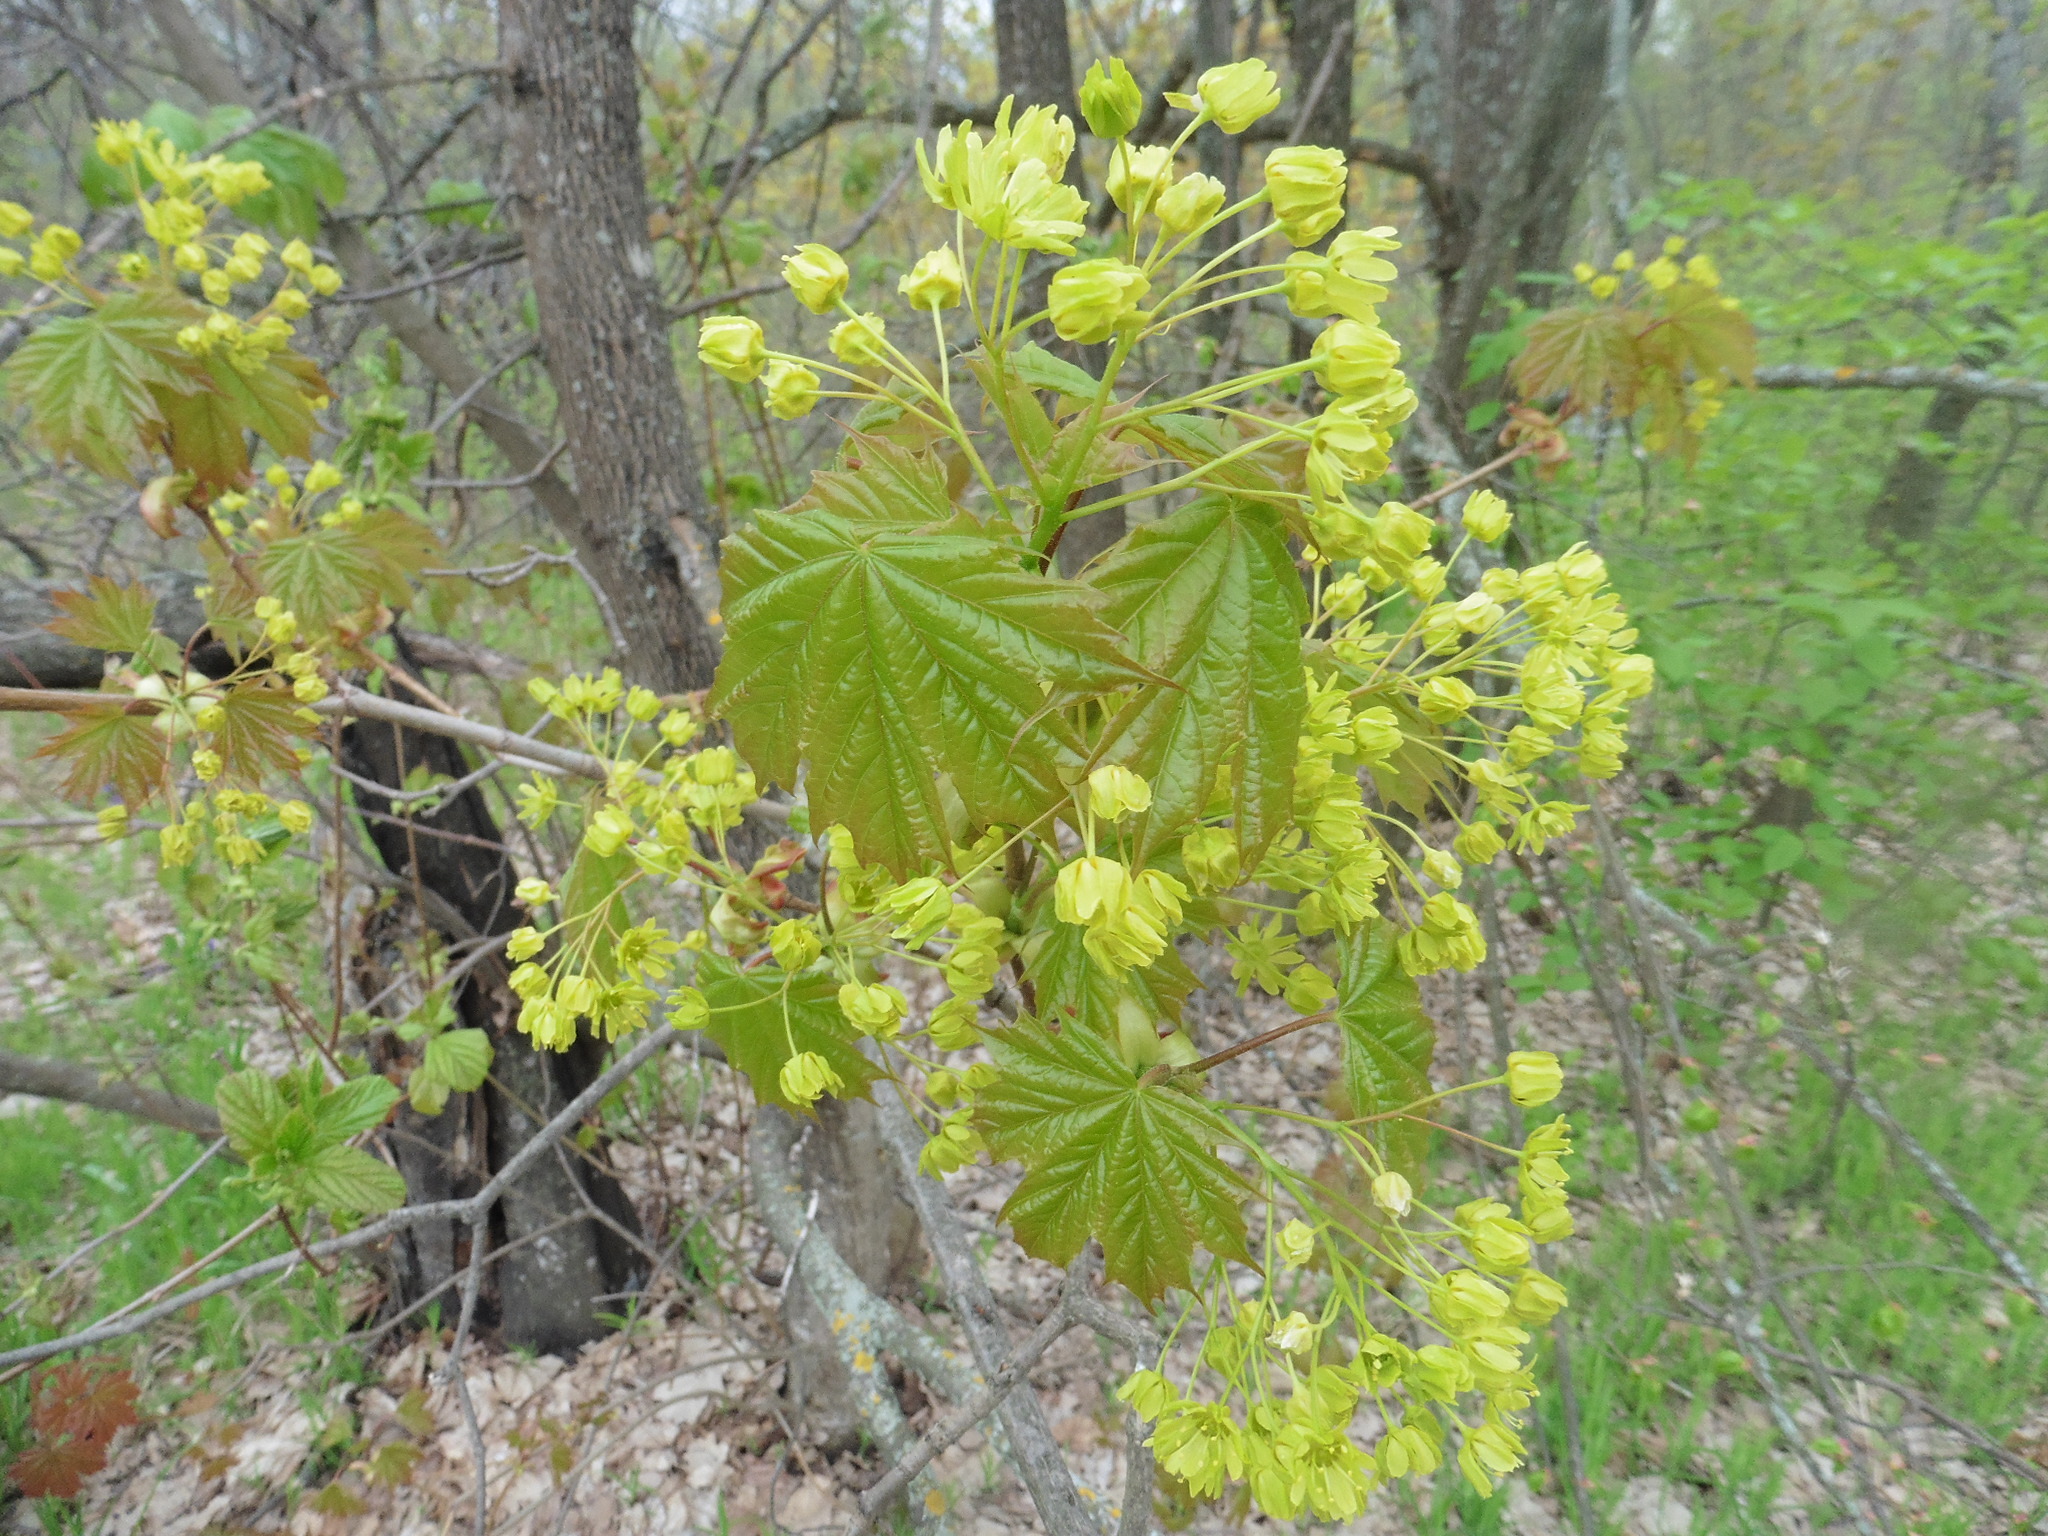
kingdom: Plantae
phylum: Tracheophyta
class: Magnoliopsida
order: Sapindales
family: Sapindaceae
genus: Acer
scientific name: Acer platanoides
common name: Norway maple
